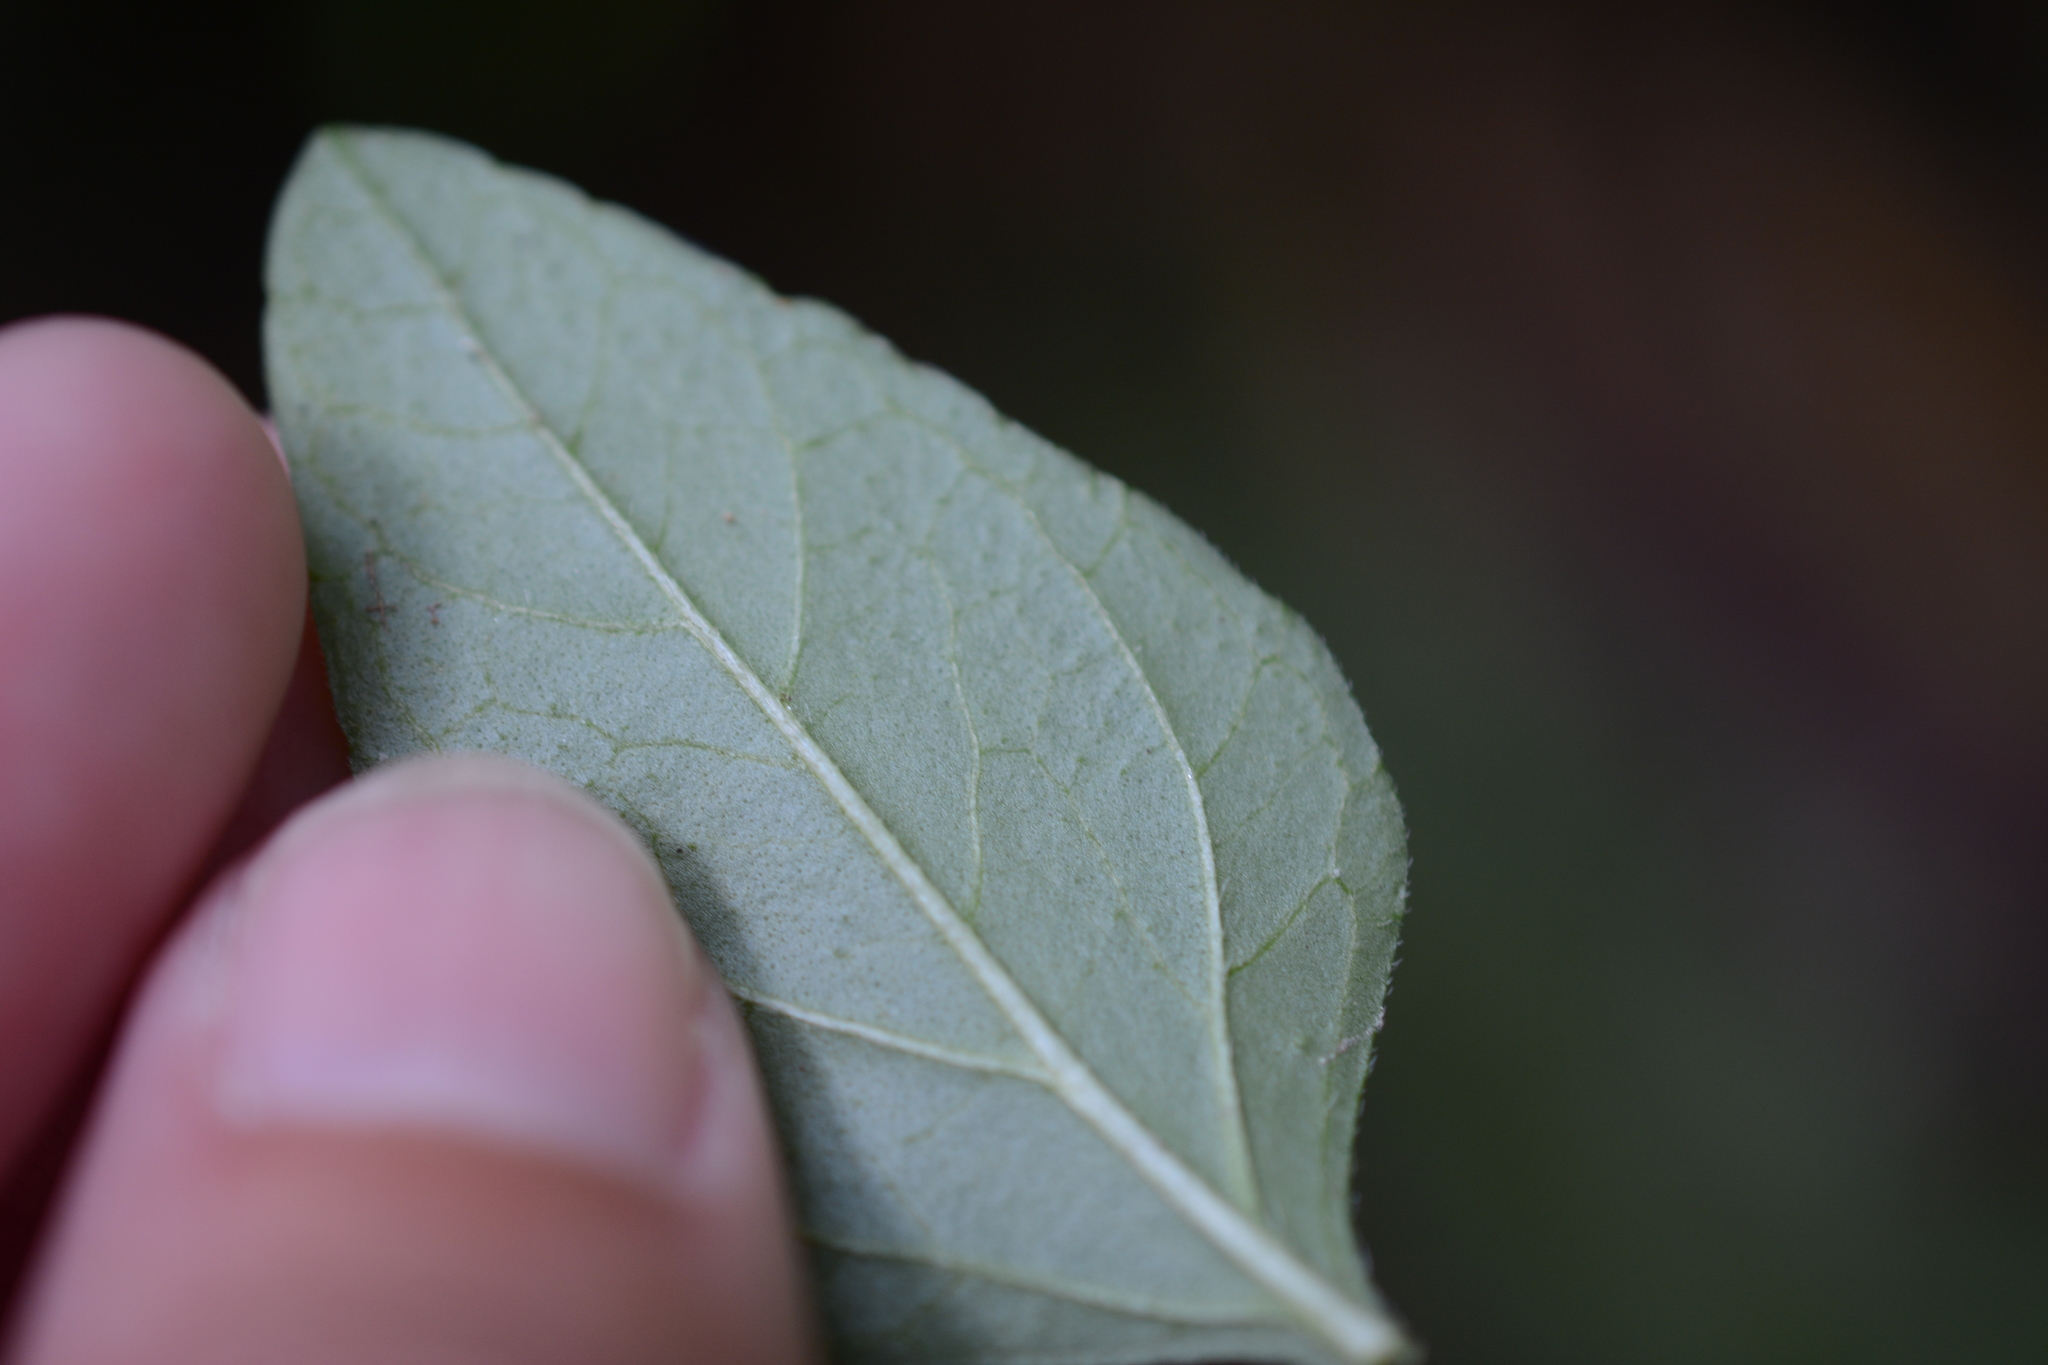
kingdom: Plantae
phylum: Tracheophyta
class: Magnoliopsida
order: Lamiales
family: Lamiaceae
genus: Prunella
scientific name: Prunella vulgaris
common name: Heal-all
